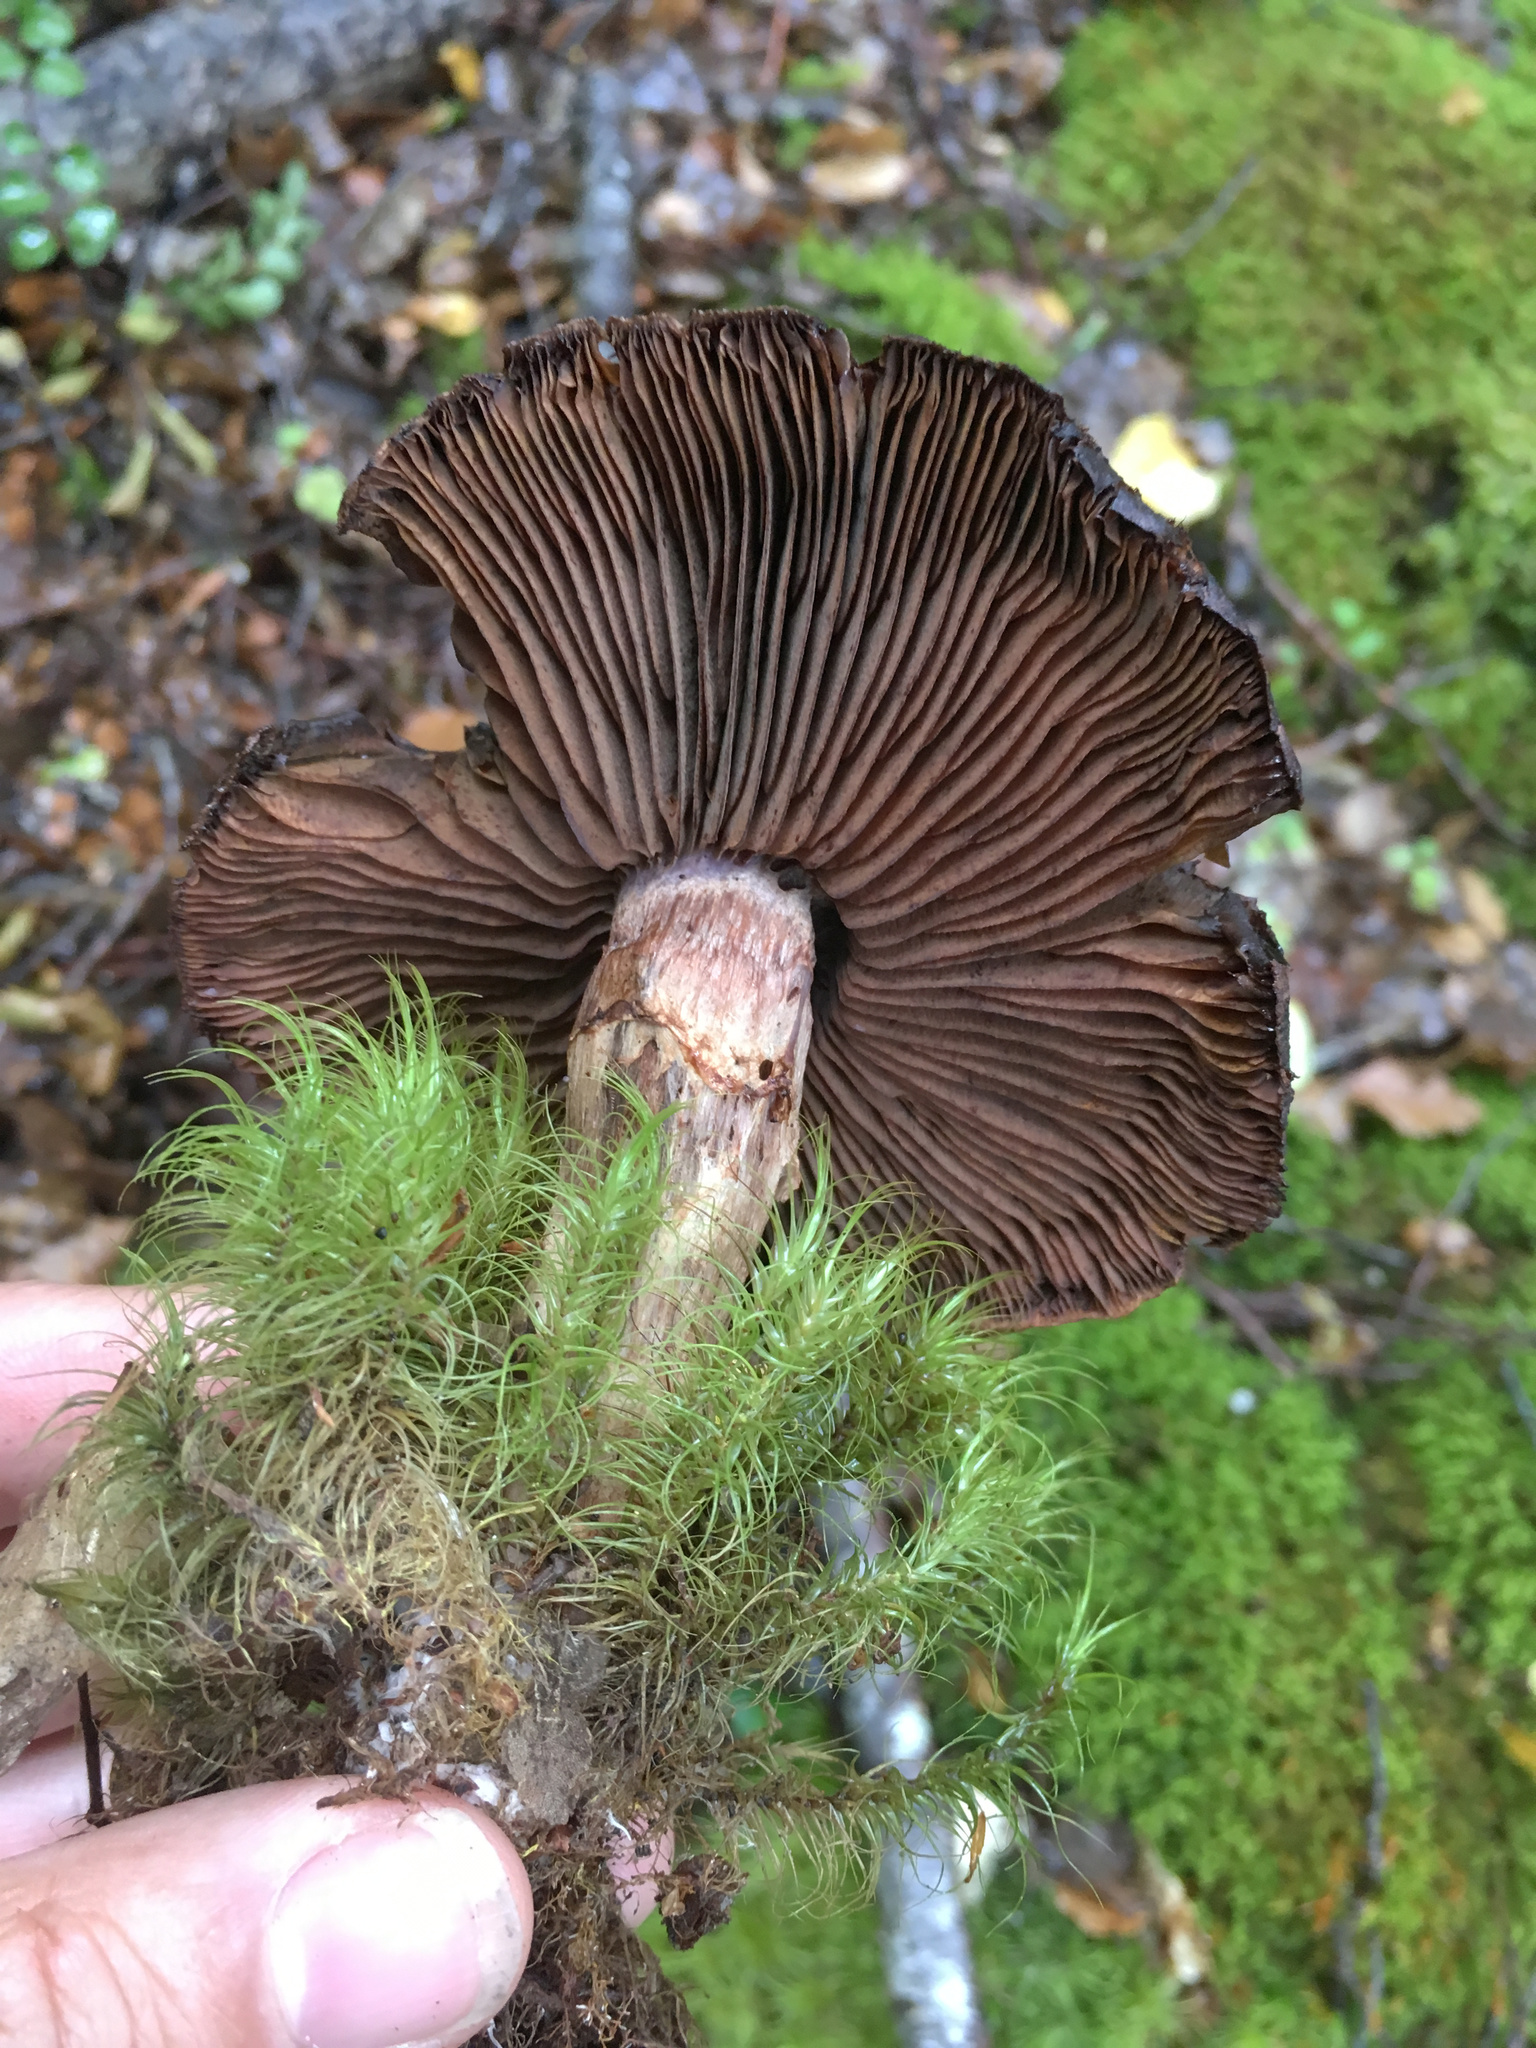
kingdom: Fungi
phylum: Basidiomycota
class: Agaricomycetes
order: Agaricales
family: Cortinariaceae
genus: Cortinarius
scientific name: Cortinarius ursus
